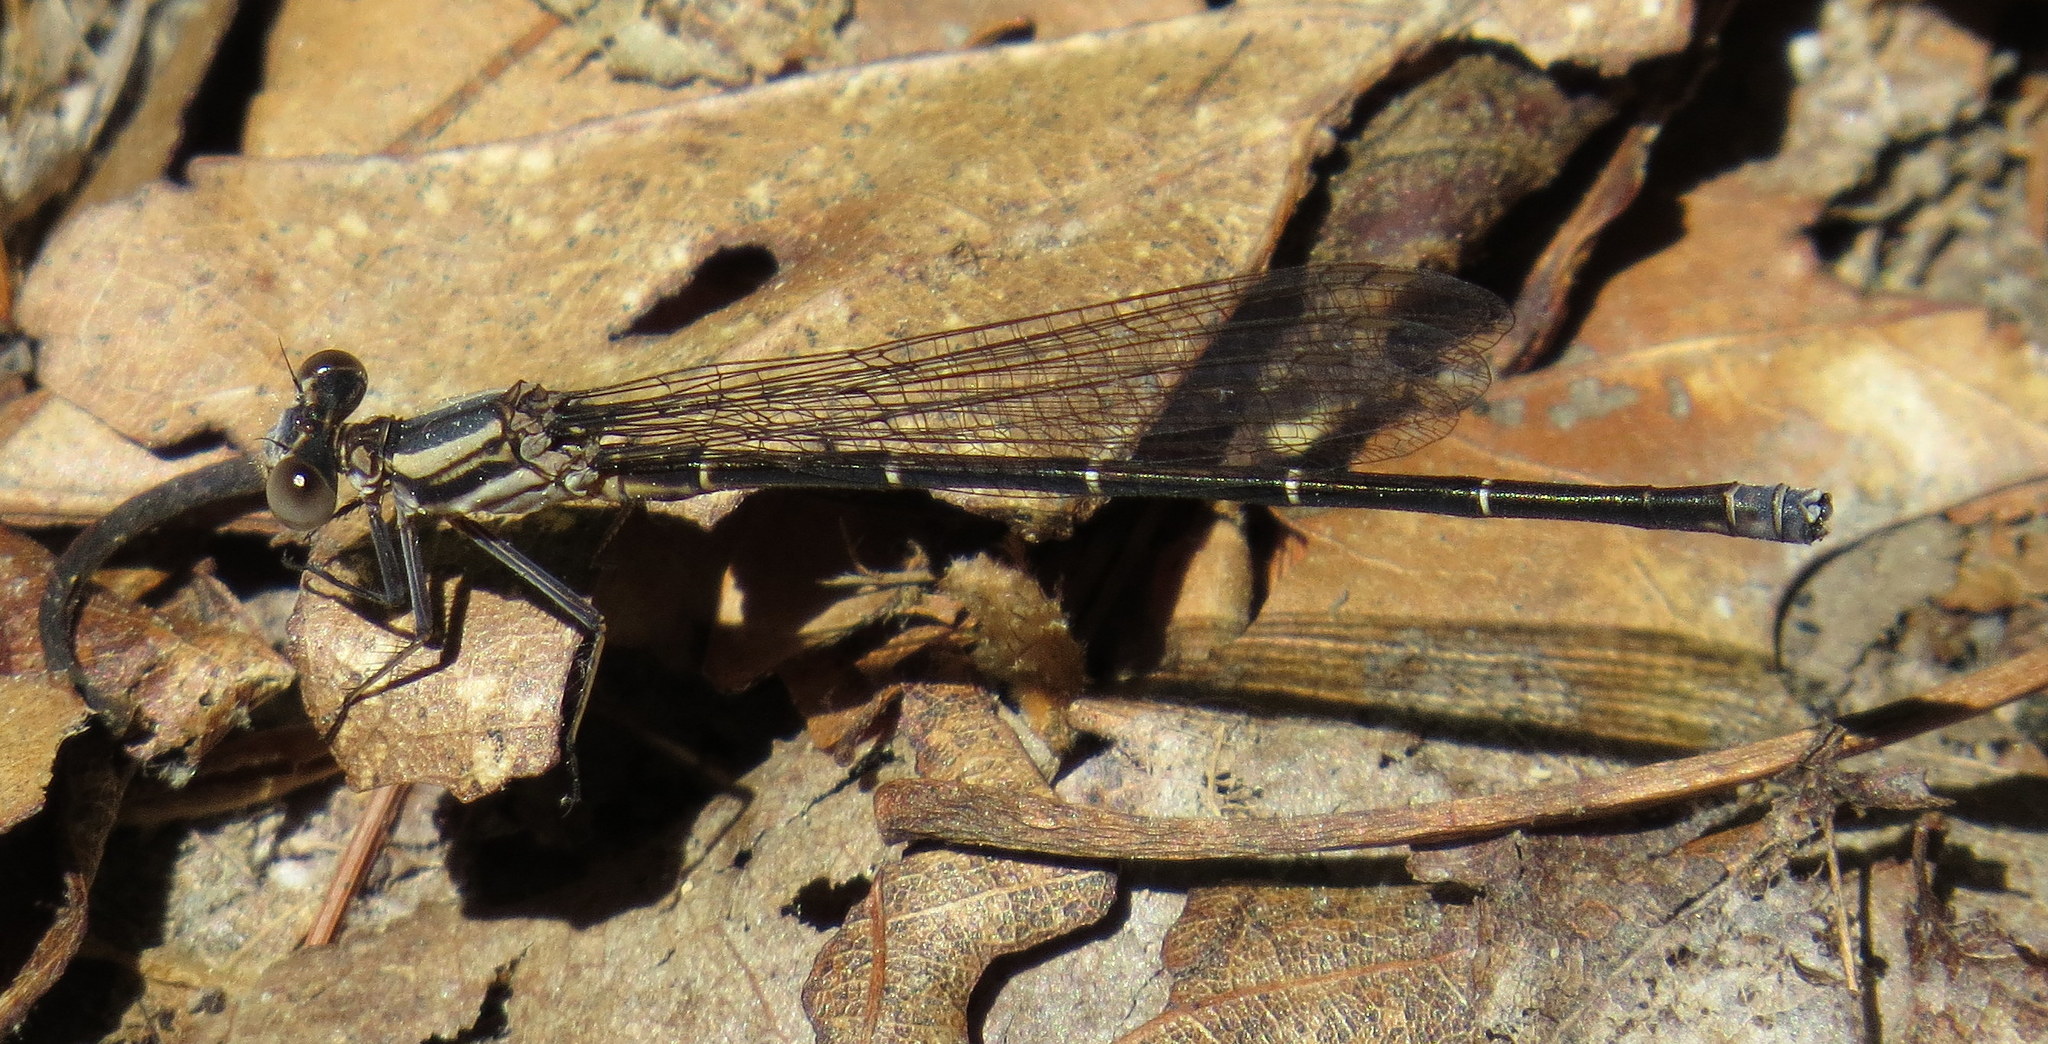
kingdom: Animalia
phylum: Arthropoda
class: Insecta
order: Odonata
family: Coenagrionidae
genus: Argia
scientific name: Argia moesta
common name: Powdered dancer
